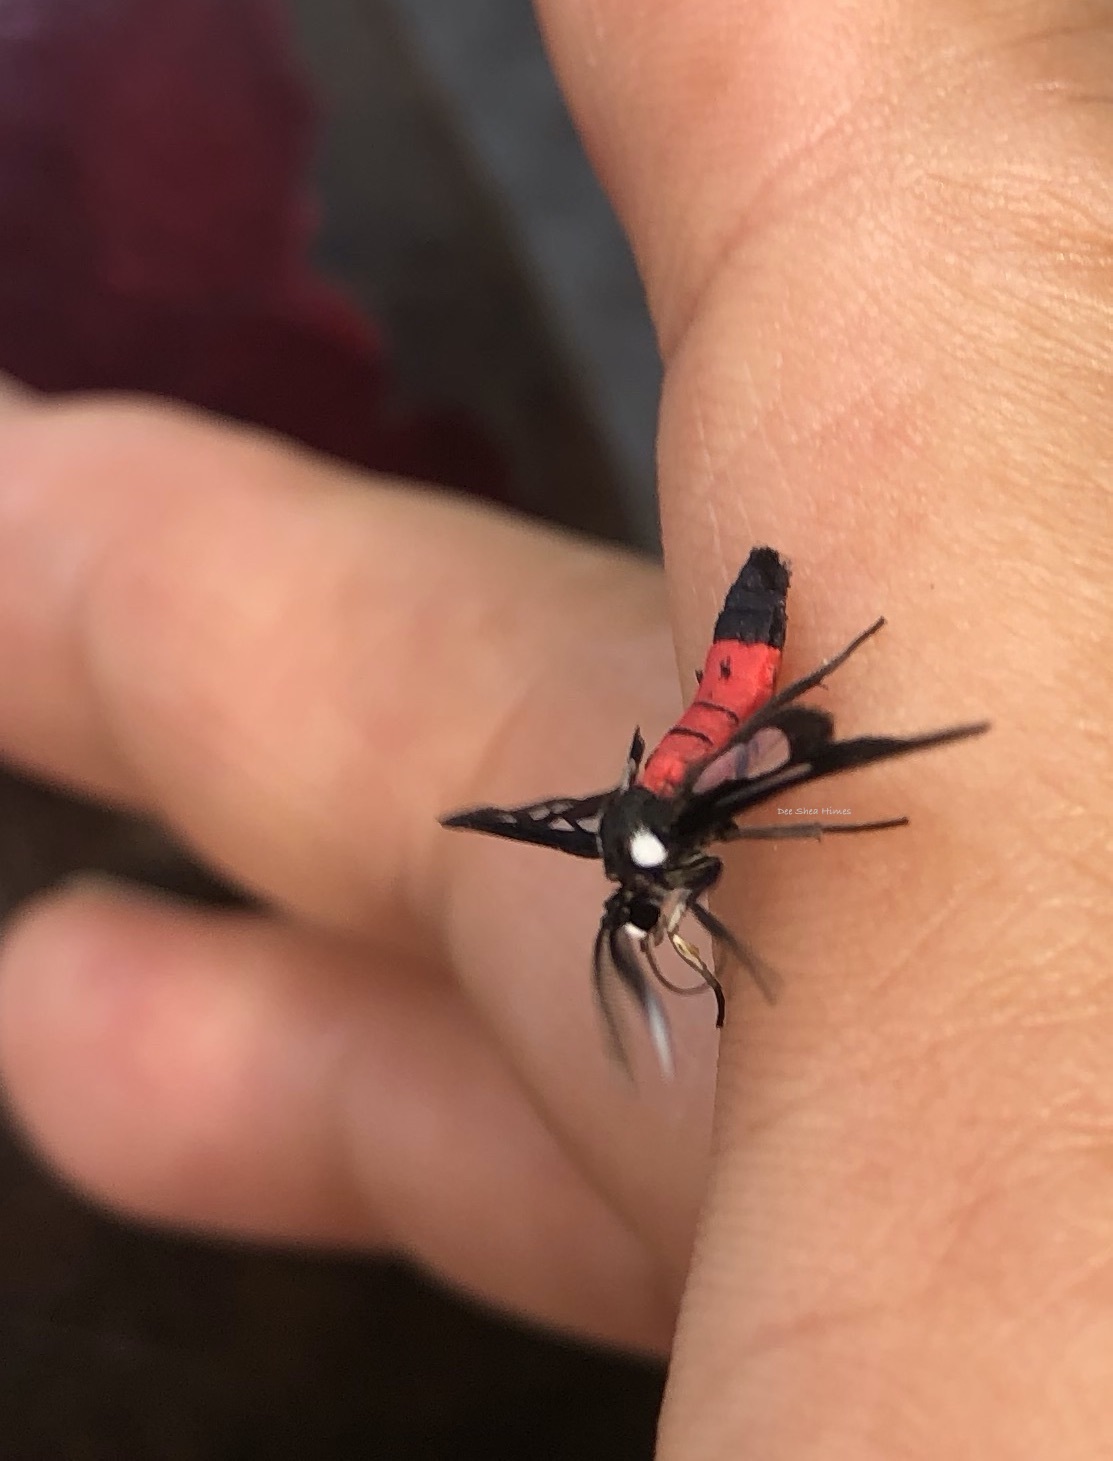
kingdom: Animalia
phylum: Arthropoda
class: Insecta
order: Lepidoptera
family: Erebidae
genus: Amata
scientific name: Amata fouqueti
